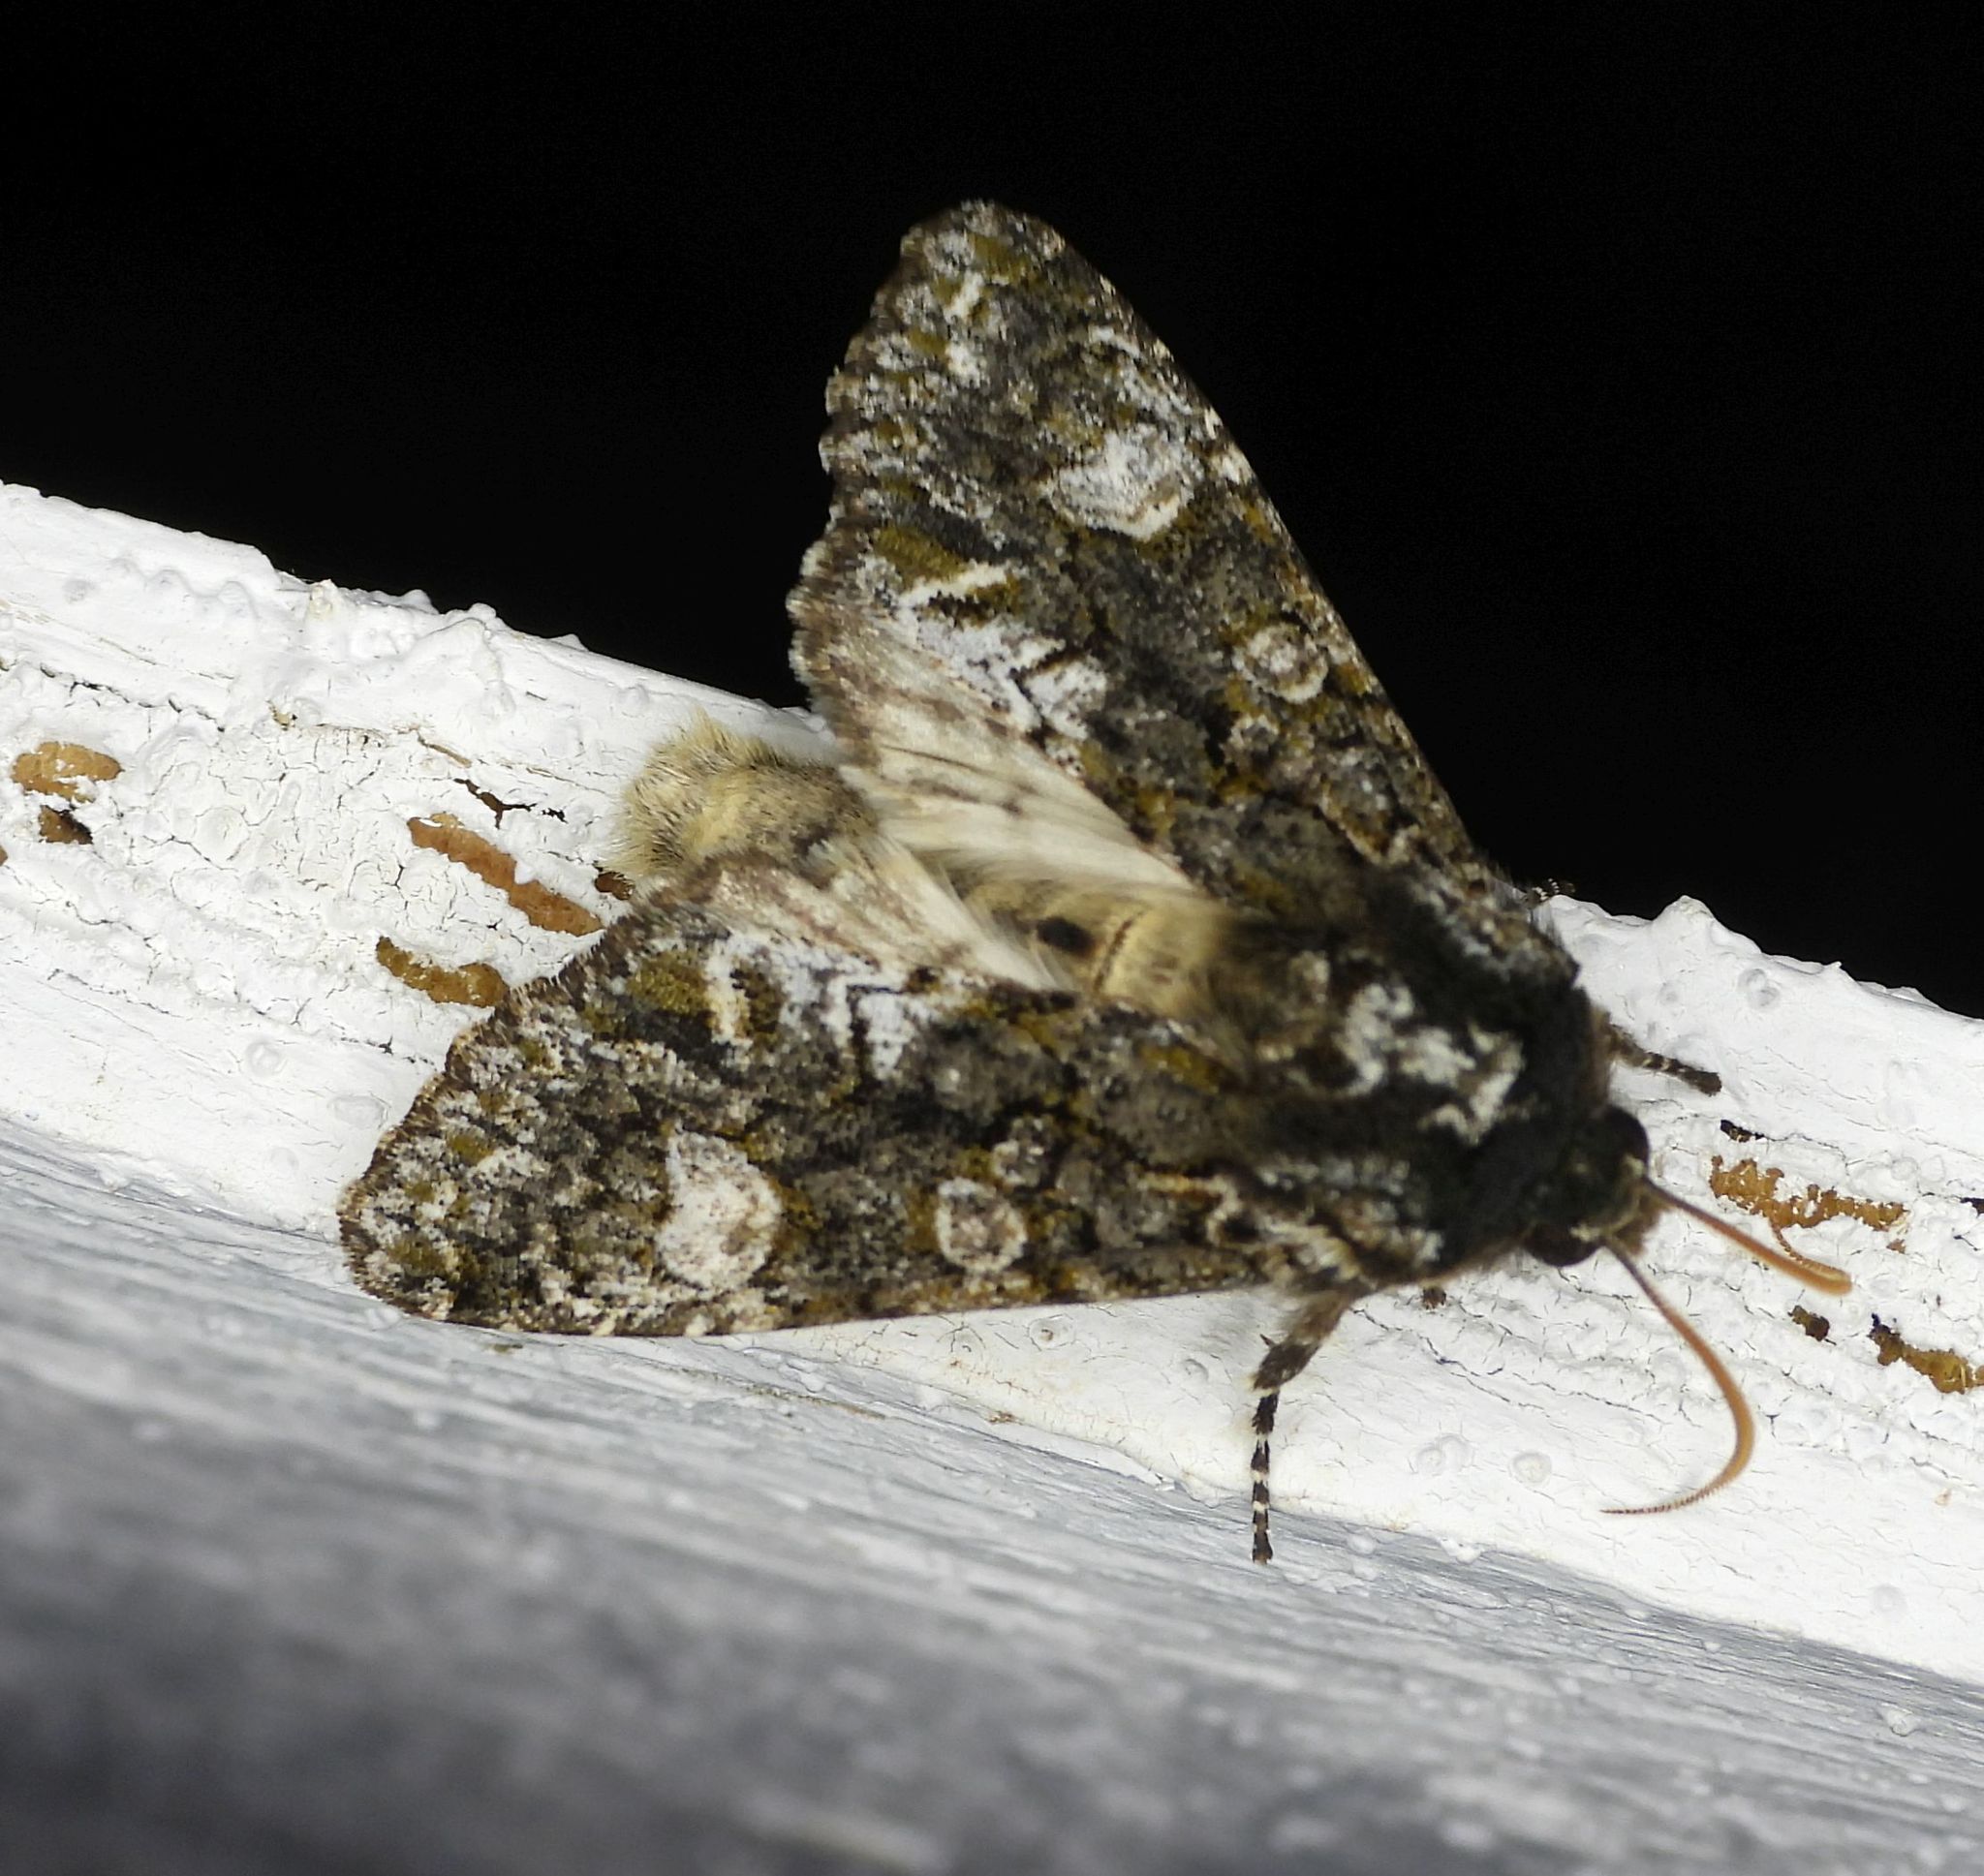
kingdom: Animalia
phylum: Arthropoda
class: Insecta
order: Lepidoptera
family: Noctuidae
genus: Psaphida
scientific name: Psaphida grotei
